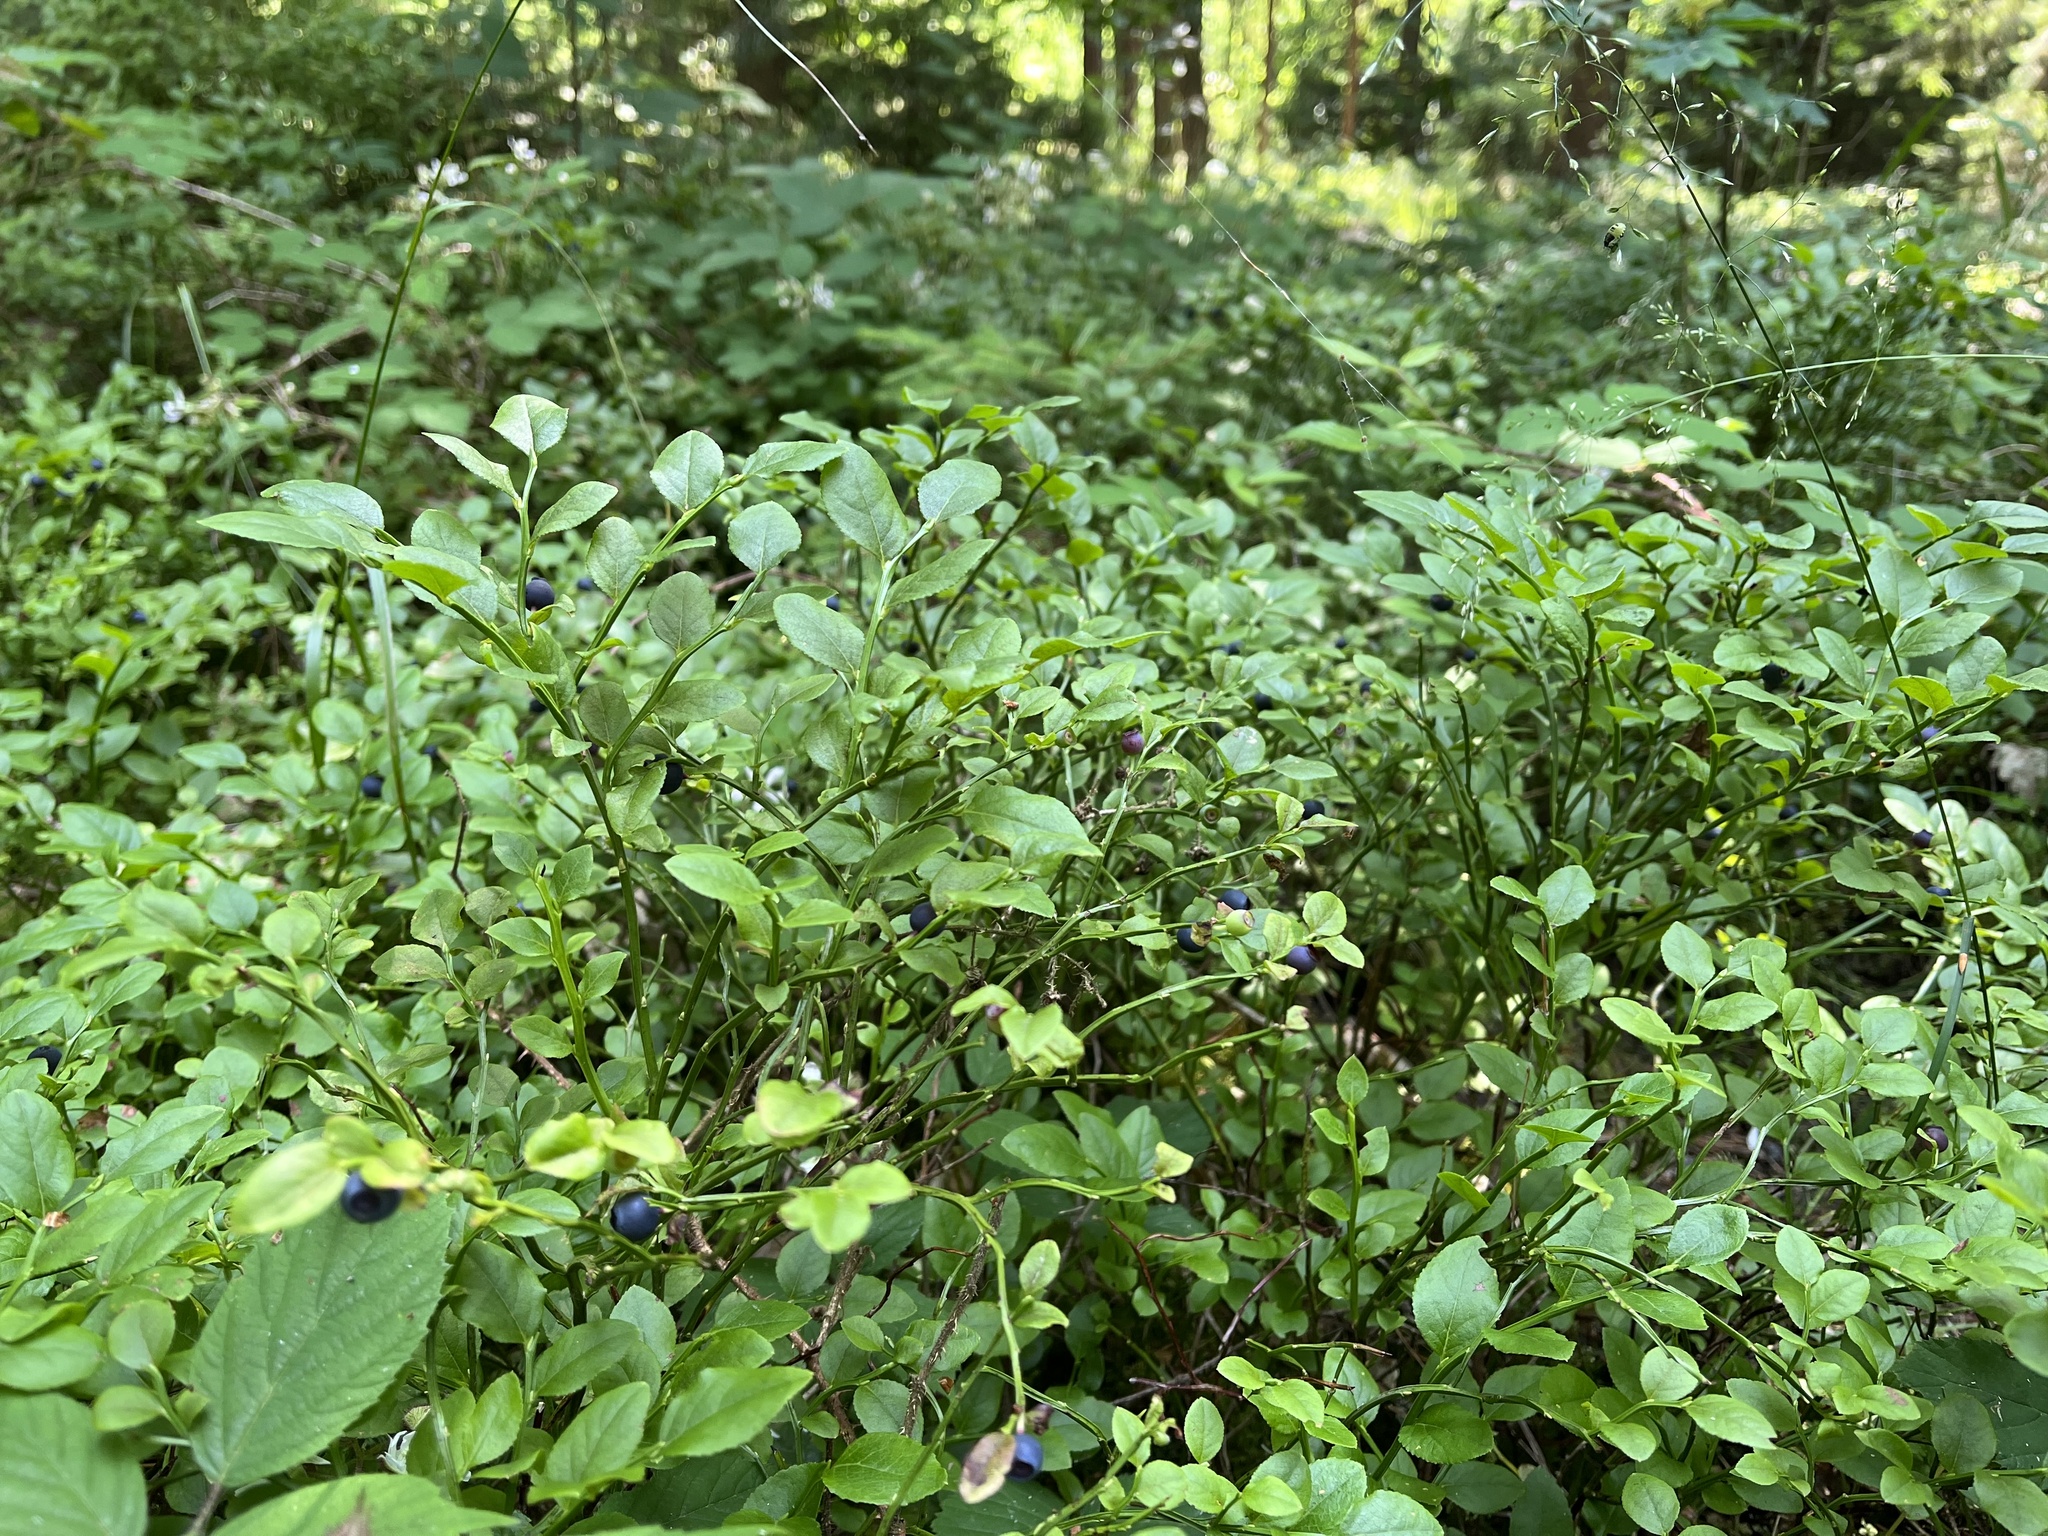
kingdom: Plantae
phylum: Tracheophyta
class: Magnoliopsida
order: Ericales
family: Ericaceae
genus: Vaccinium
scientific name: Vaccinium myrtillus
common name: Bilberry
